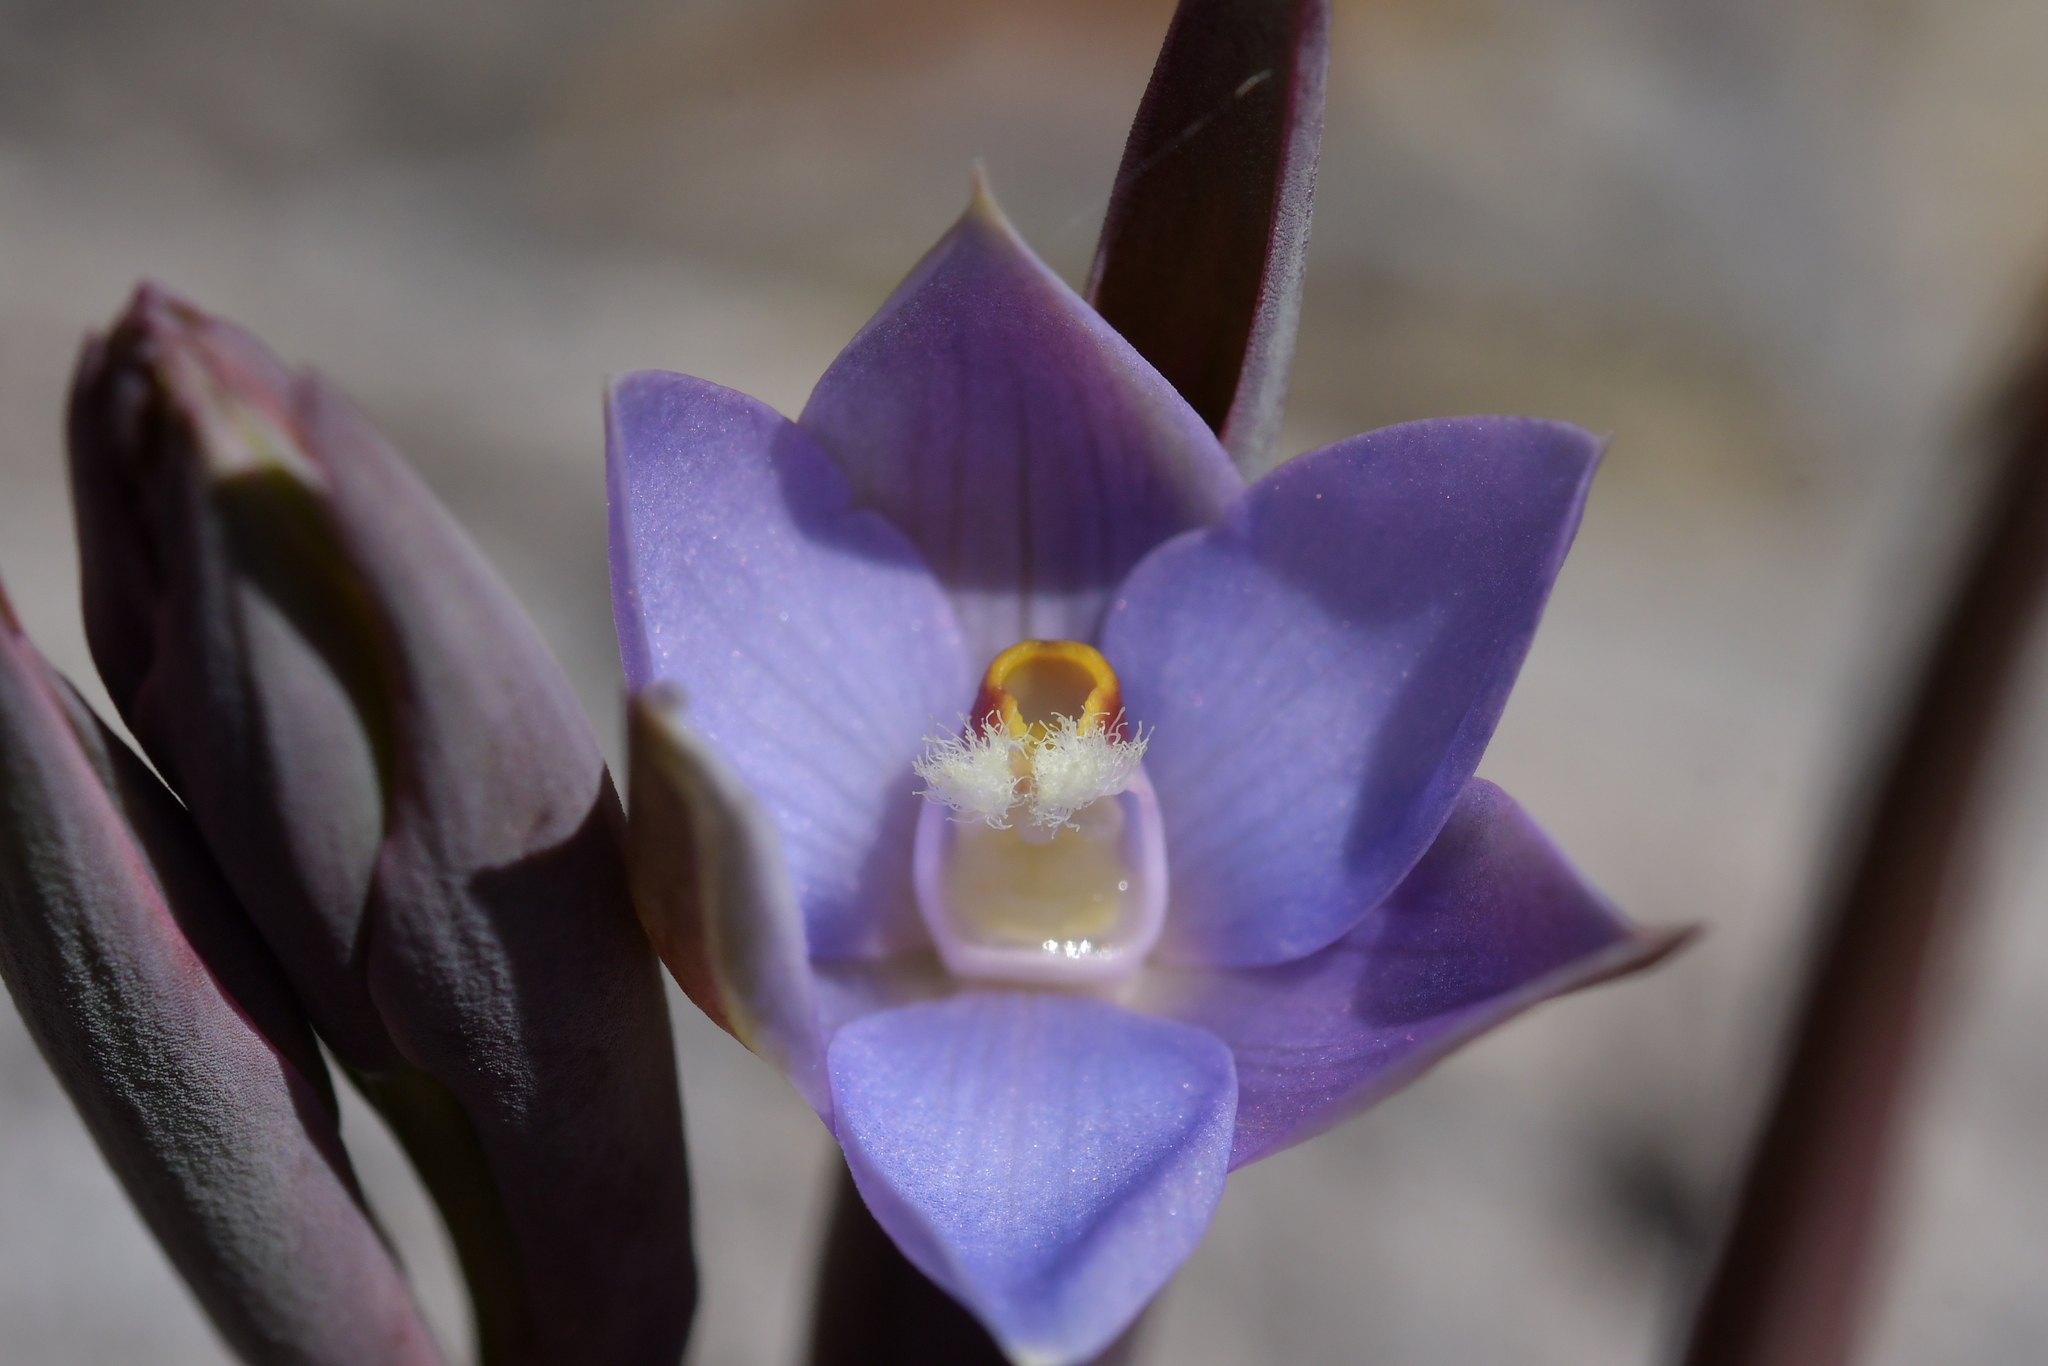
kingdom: Plantae
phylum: Tracheophyta
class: Liliopsida
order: Asparagales
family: Orchidaceae
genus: Thelymitra
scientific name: Thelymitra hatchii
